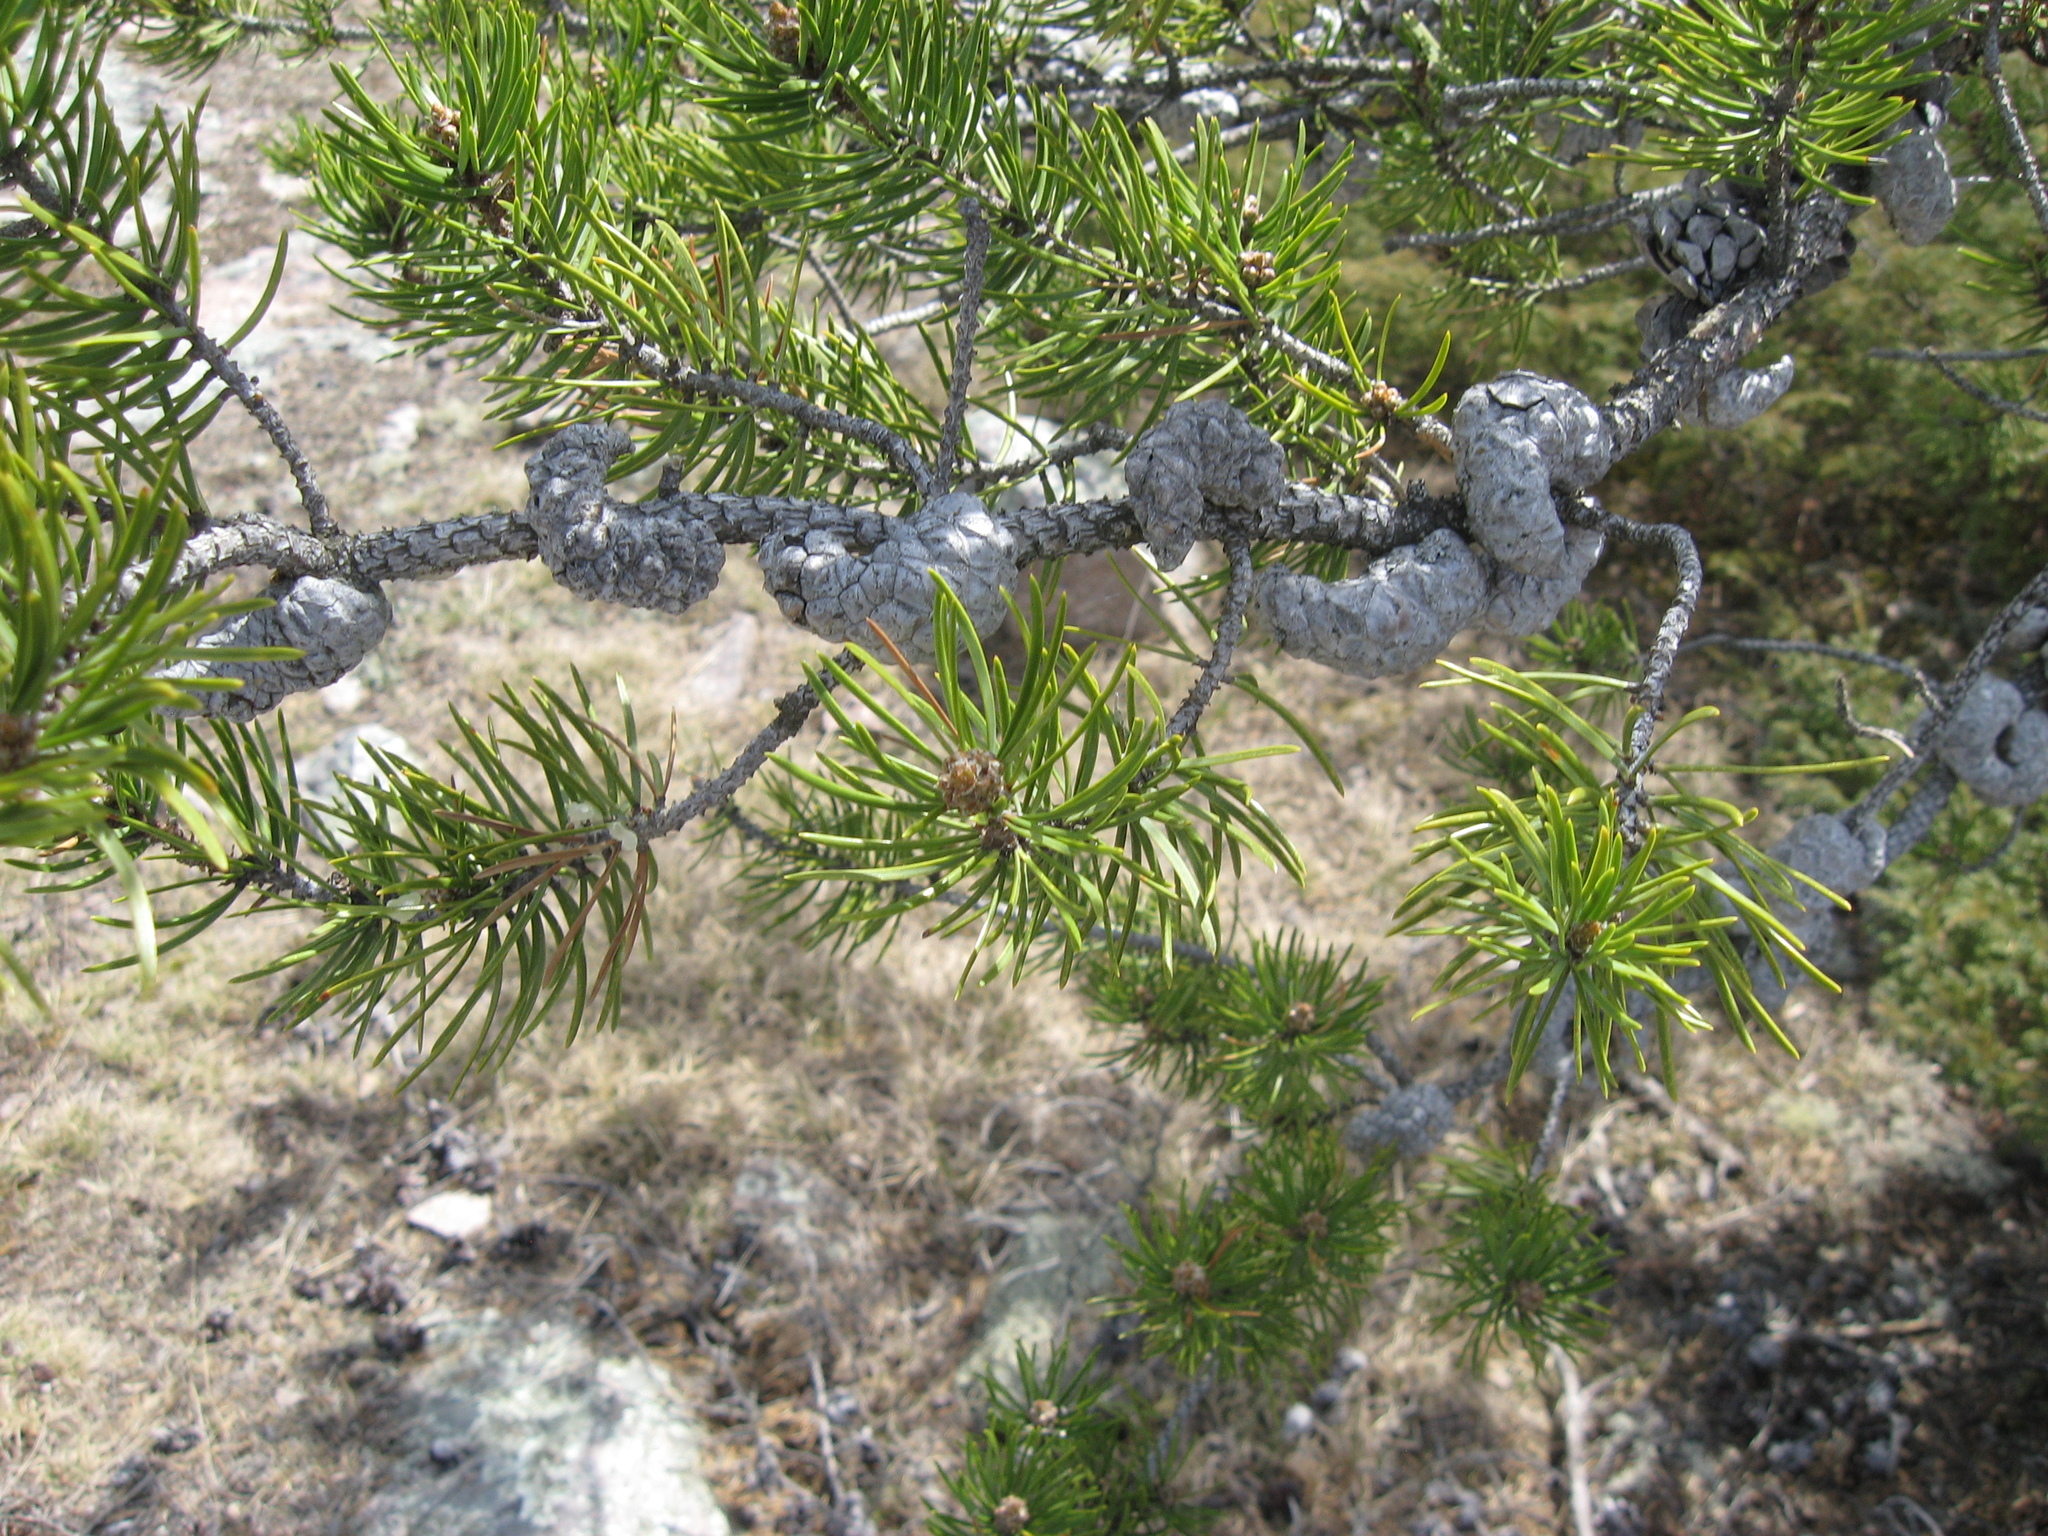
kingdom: Plantae
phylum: Tracheophyta
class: Pinopsida
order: Pinales
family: Pinaceae
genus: Pinus
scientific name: Pinus banksiana
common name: Jack pine
